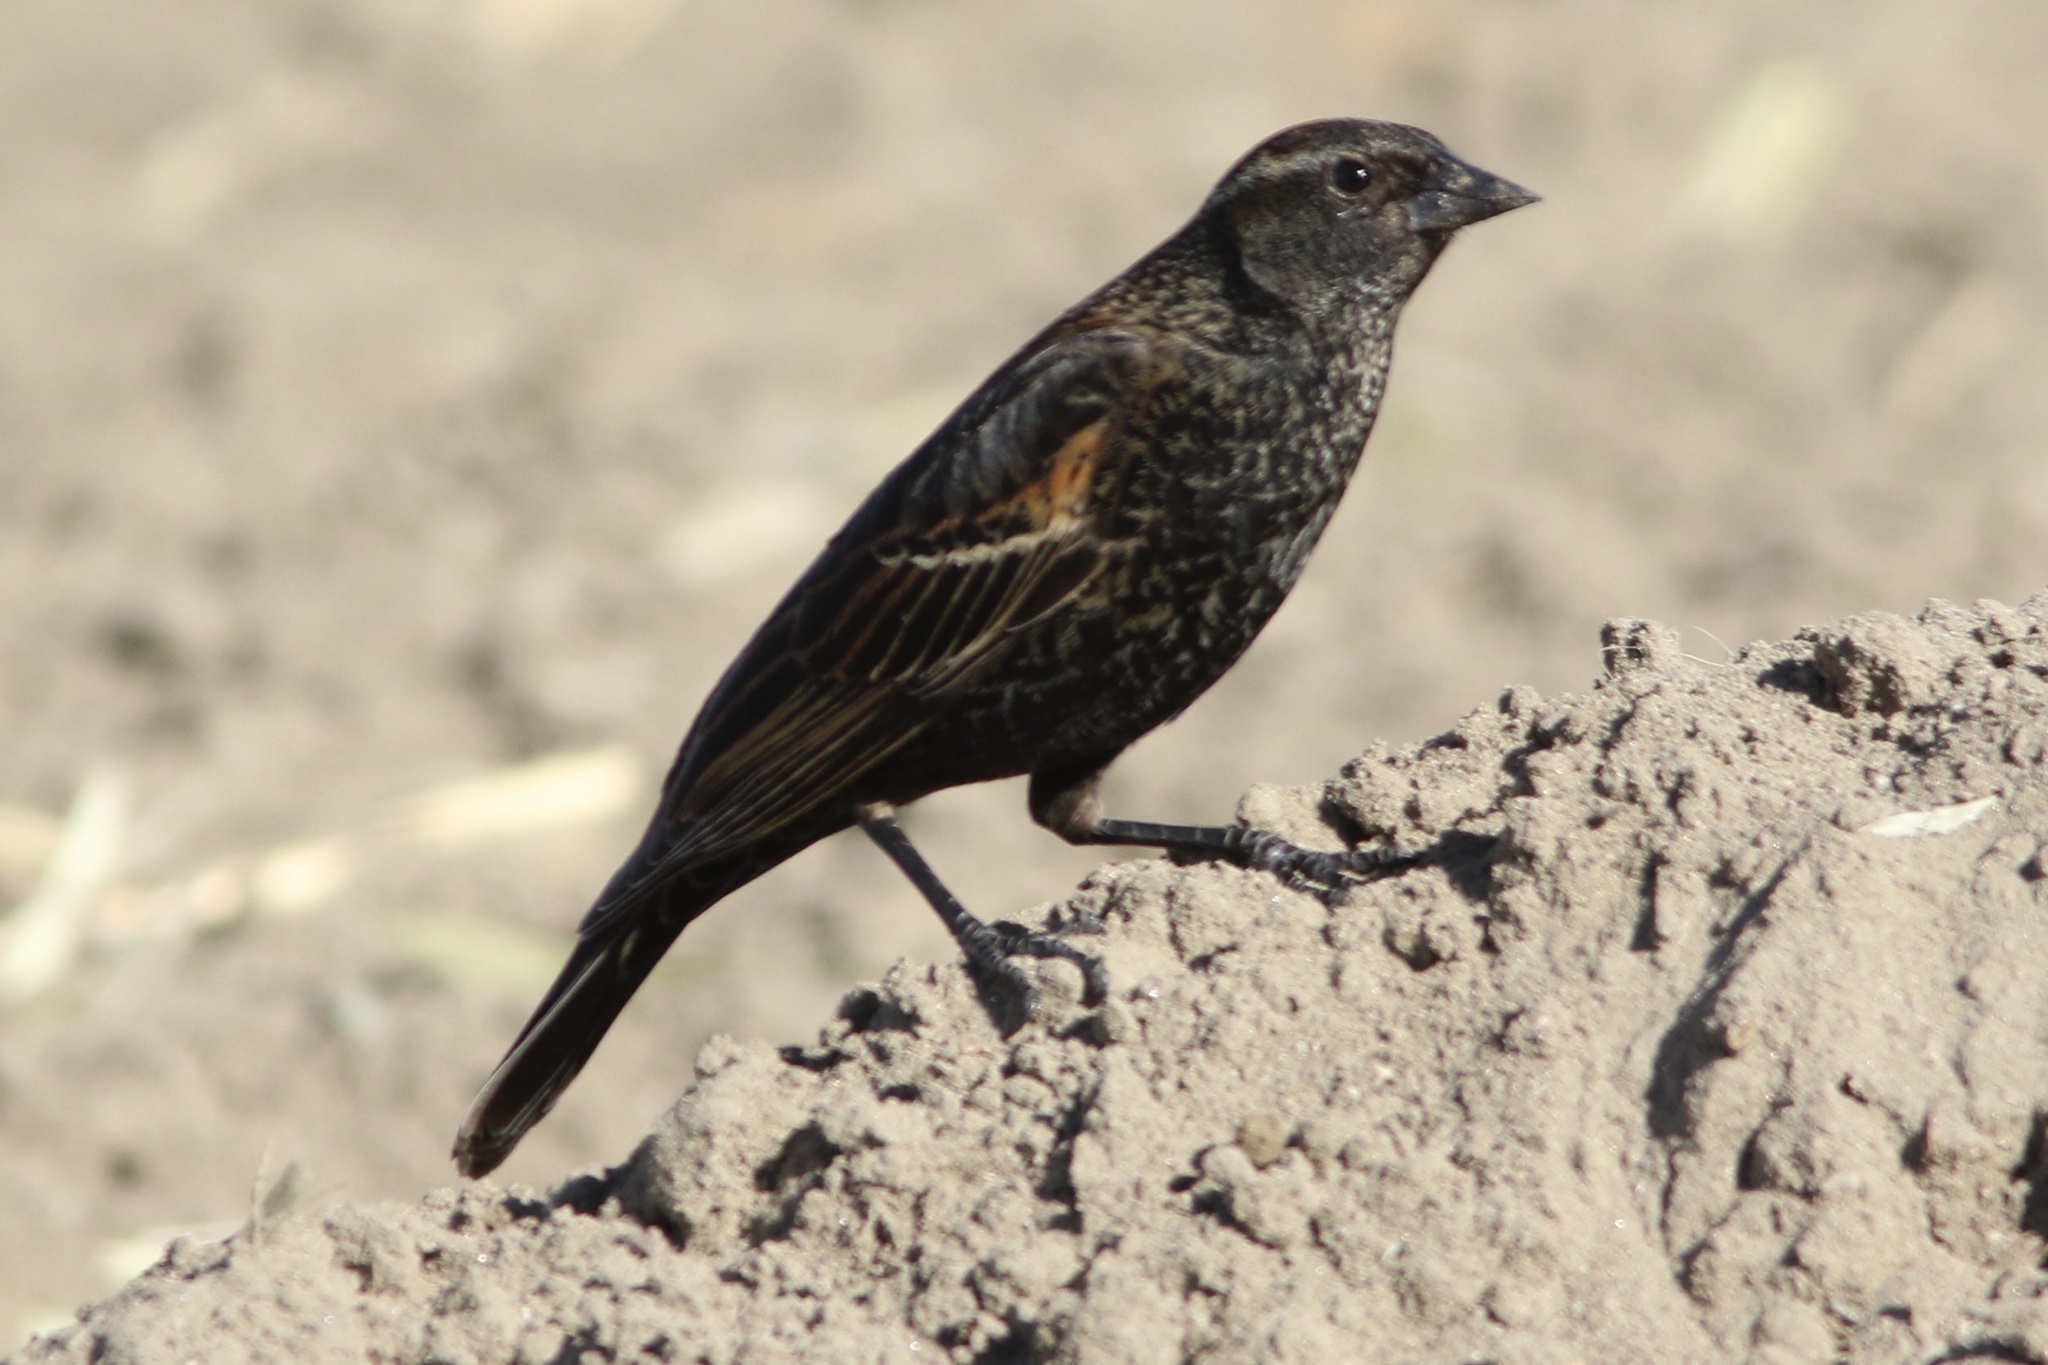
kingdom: Animalia
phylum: Chordata
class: Aves
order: Passeriformes
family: Icteridae
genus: Agelaius
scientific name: Agelaius phoeniceus
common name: Red-winged blackbird
